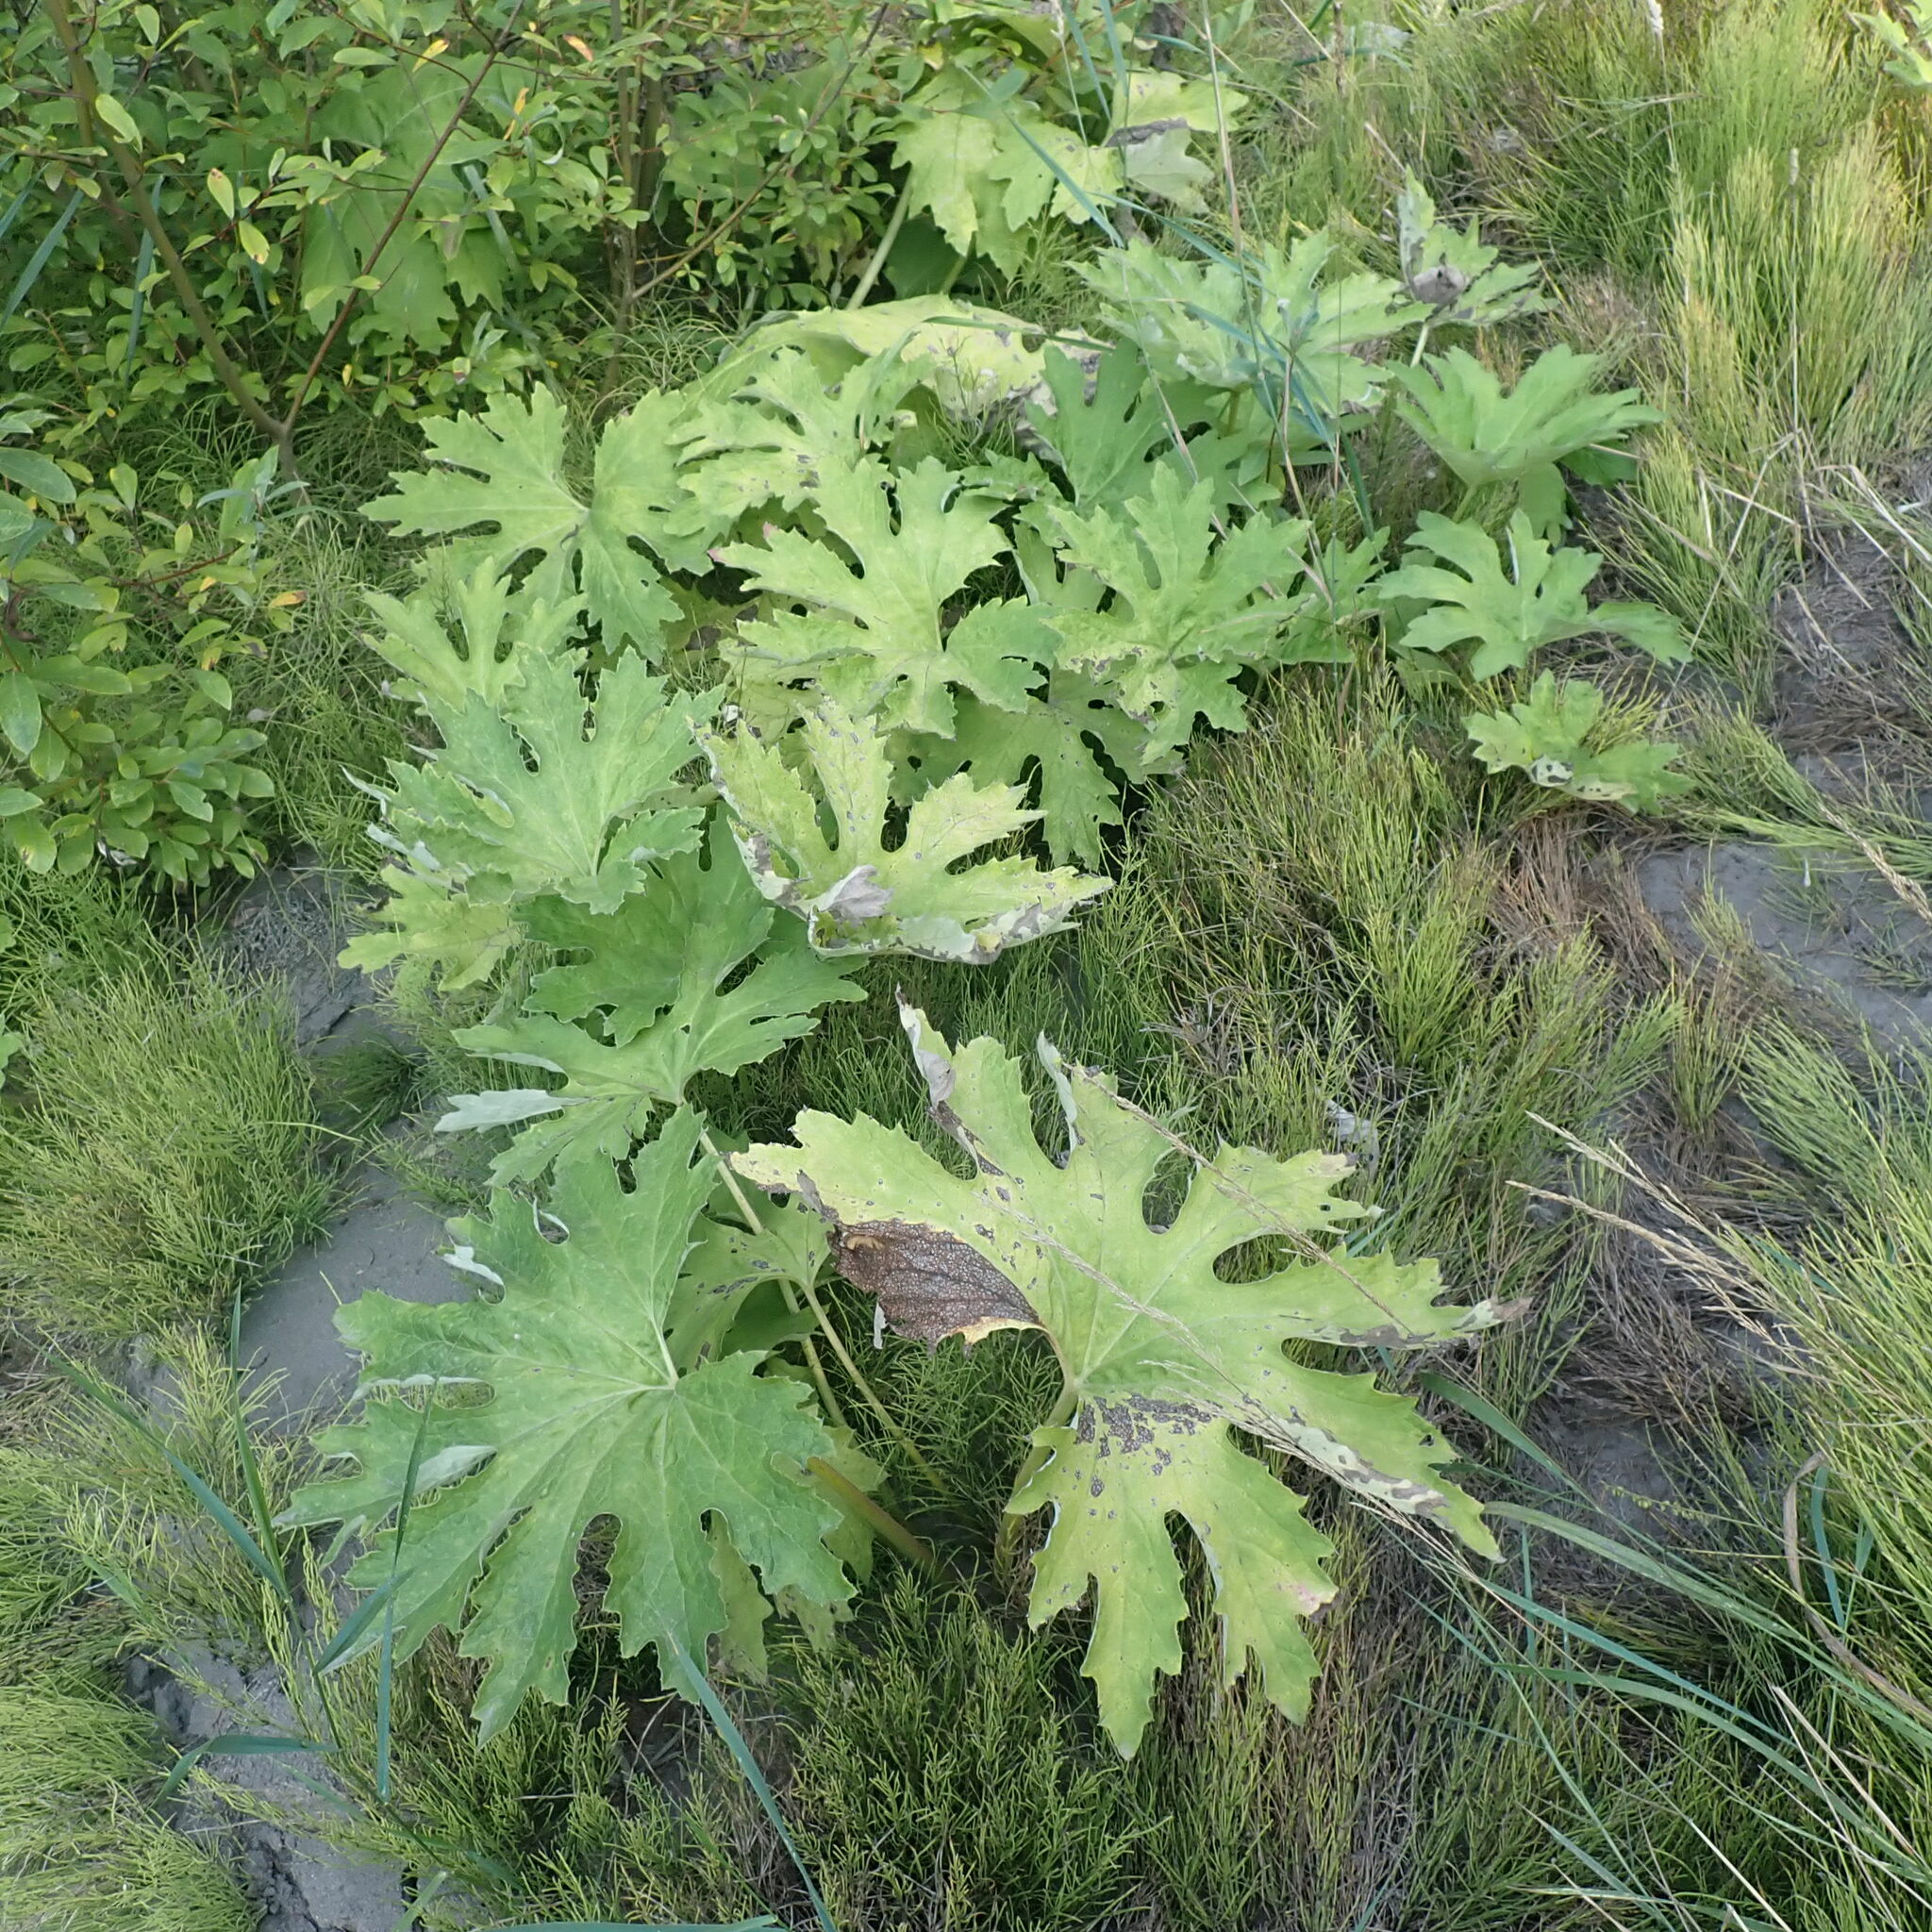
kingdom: Plantae
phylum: Tracheophyta
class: Magnoliopsida
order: Asterales
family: Asteraceae
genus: Petasites
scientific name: Petasites frigidus
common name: Arctic butterbur
